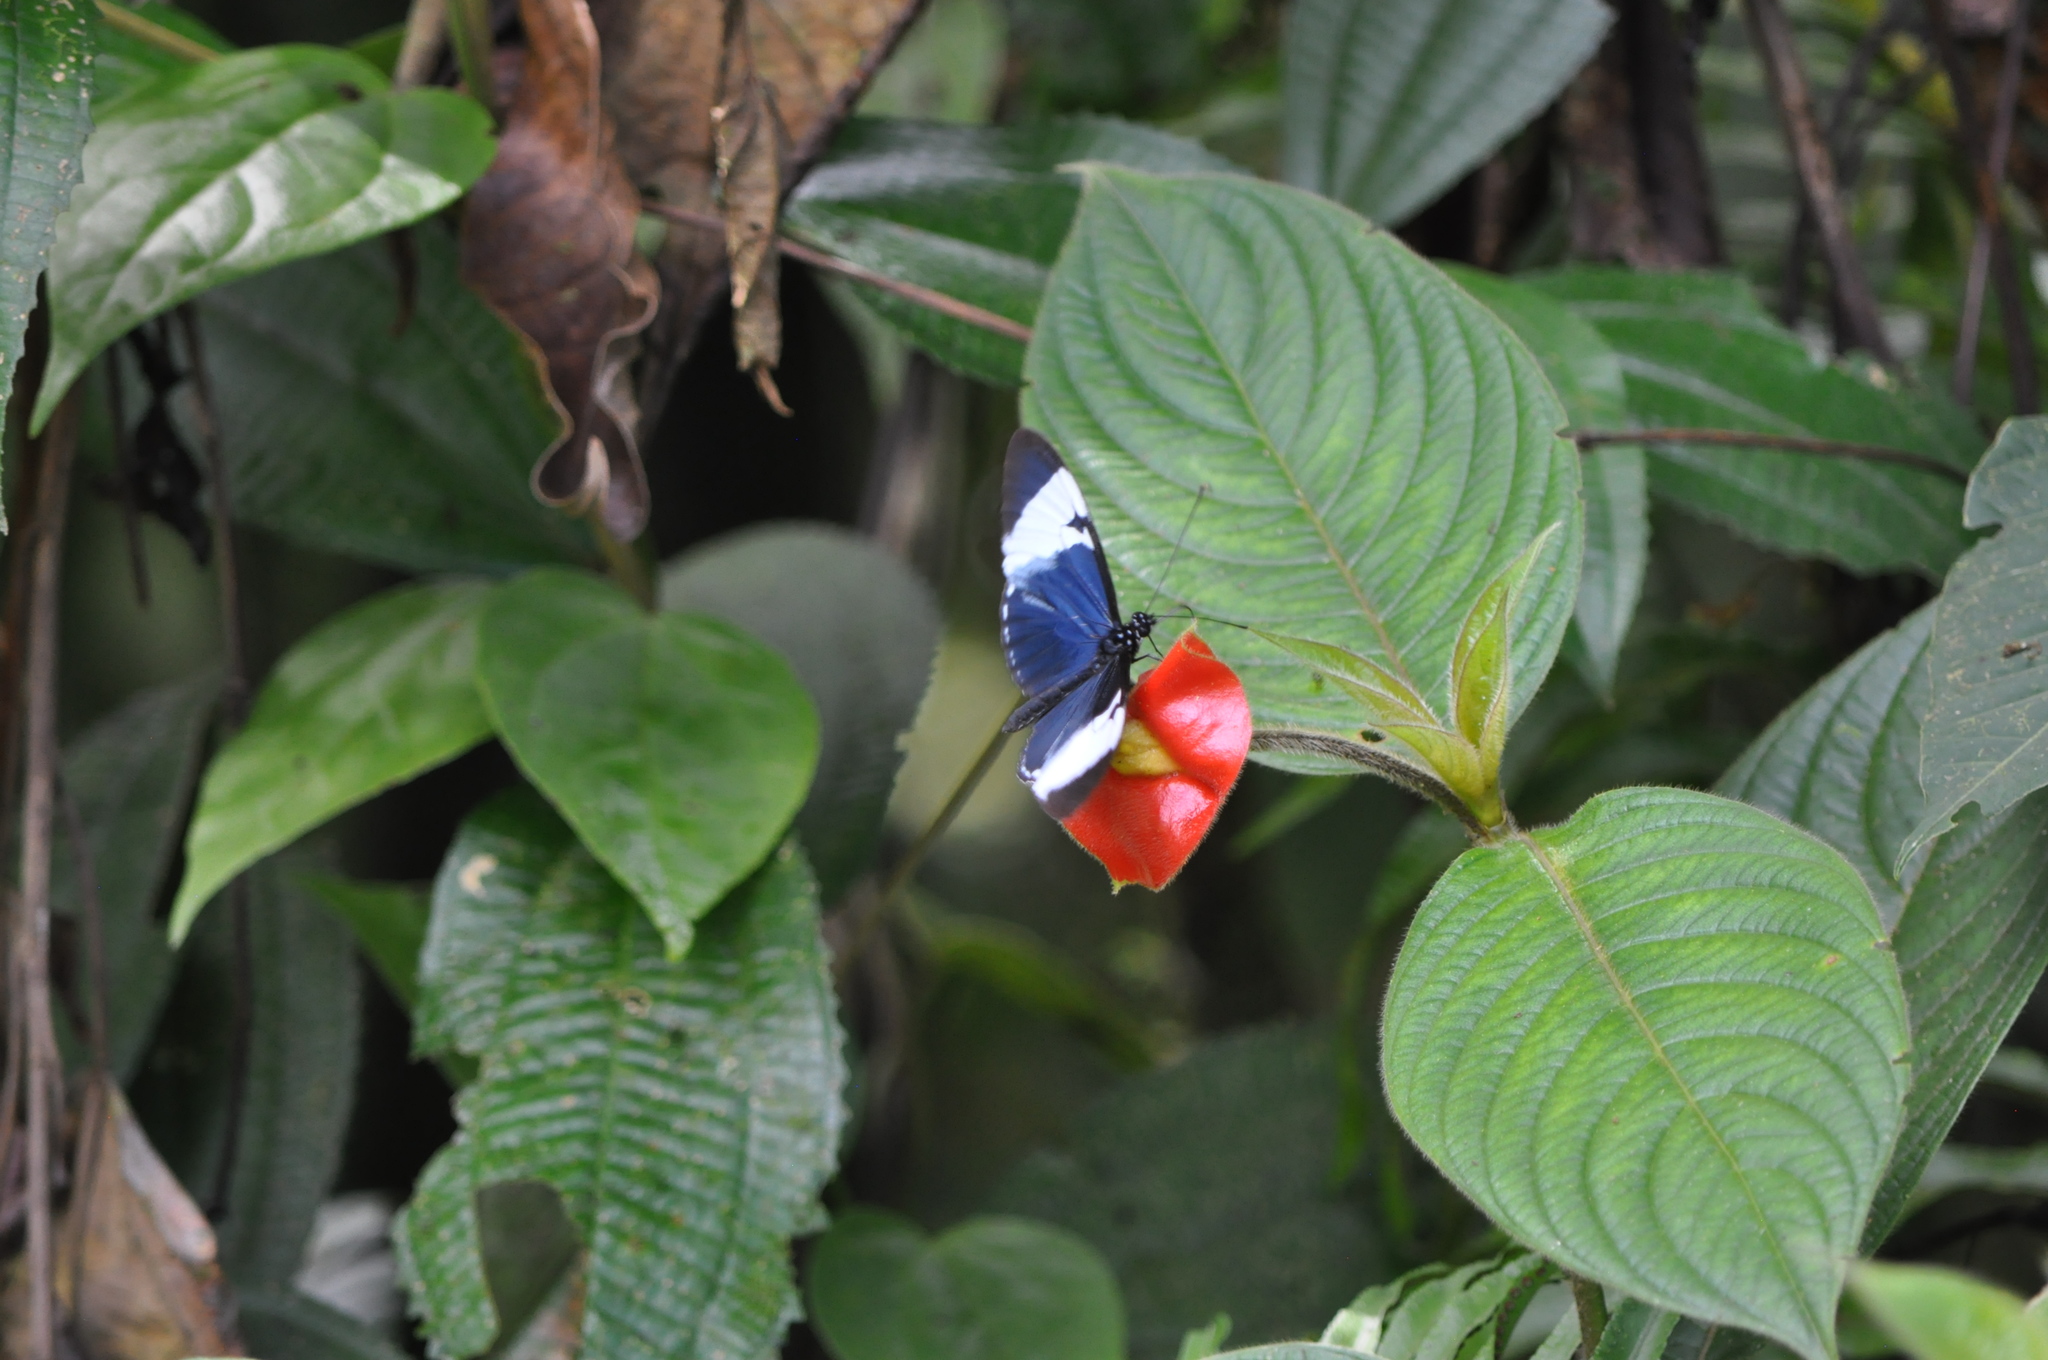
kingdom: Animalia
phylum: Arthropoda
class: Insecta
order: Lepidoptera
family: Nymphalidae
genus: Heliconius
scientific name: Heliconius cydno
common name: Cydno longwing
